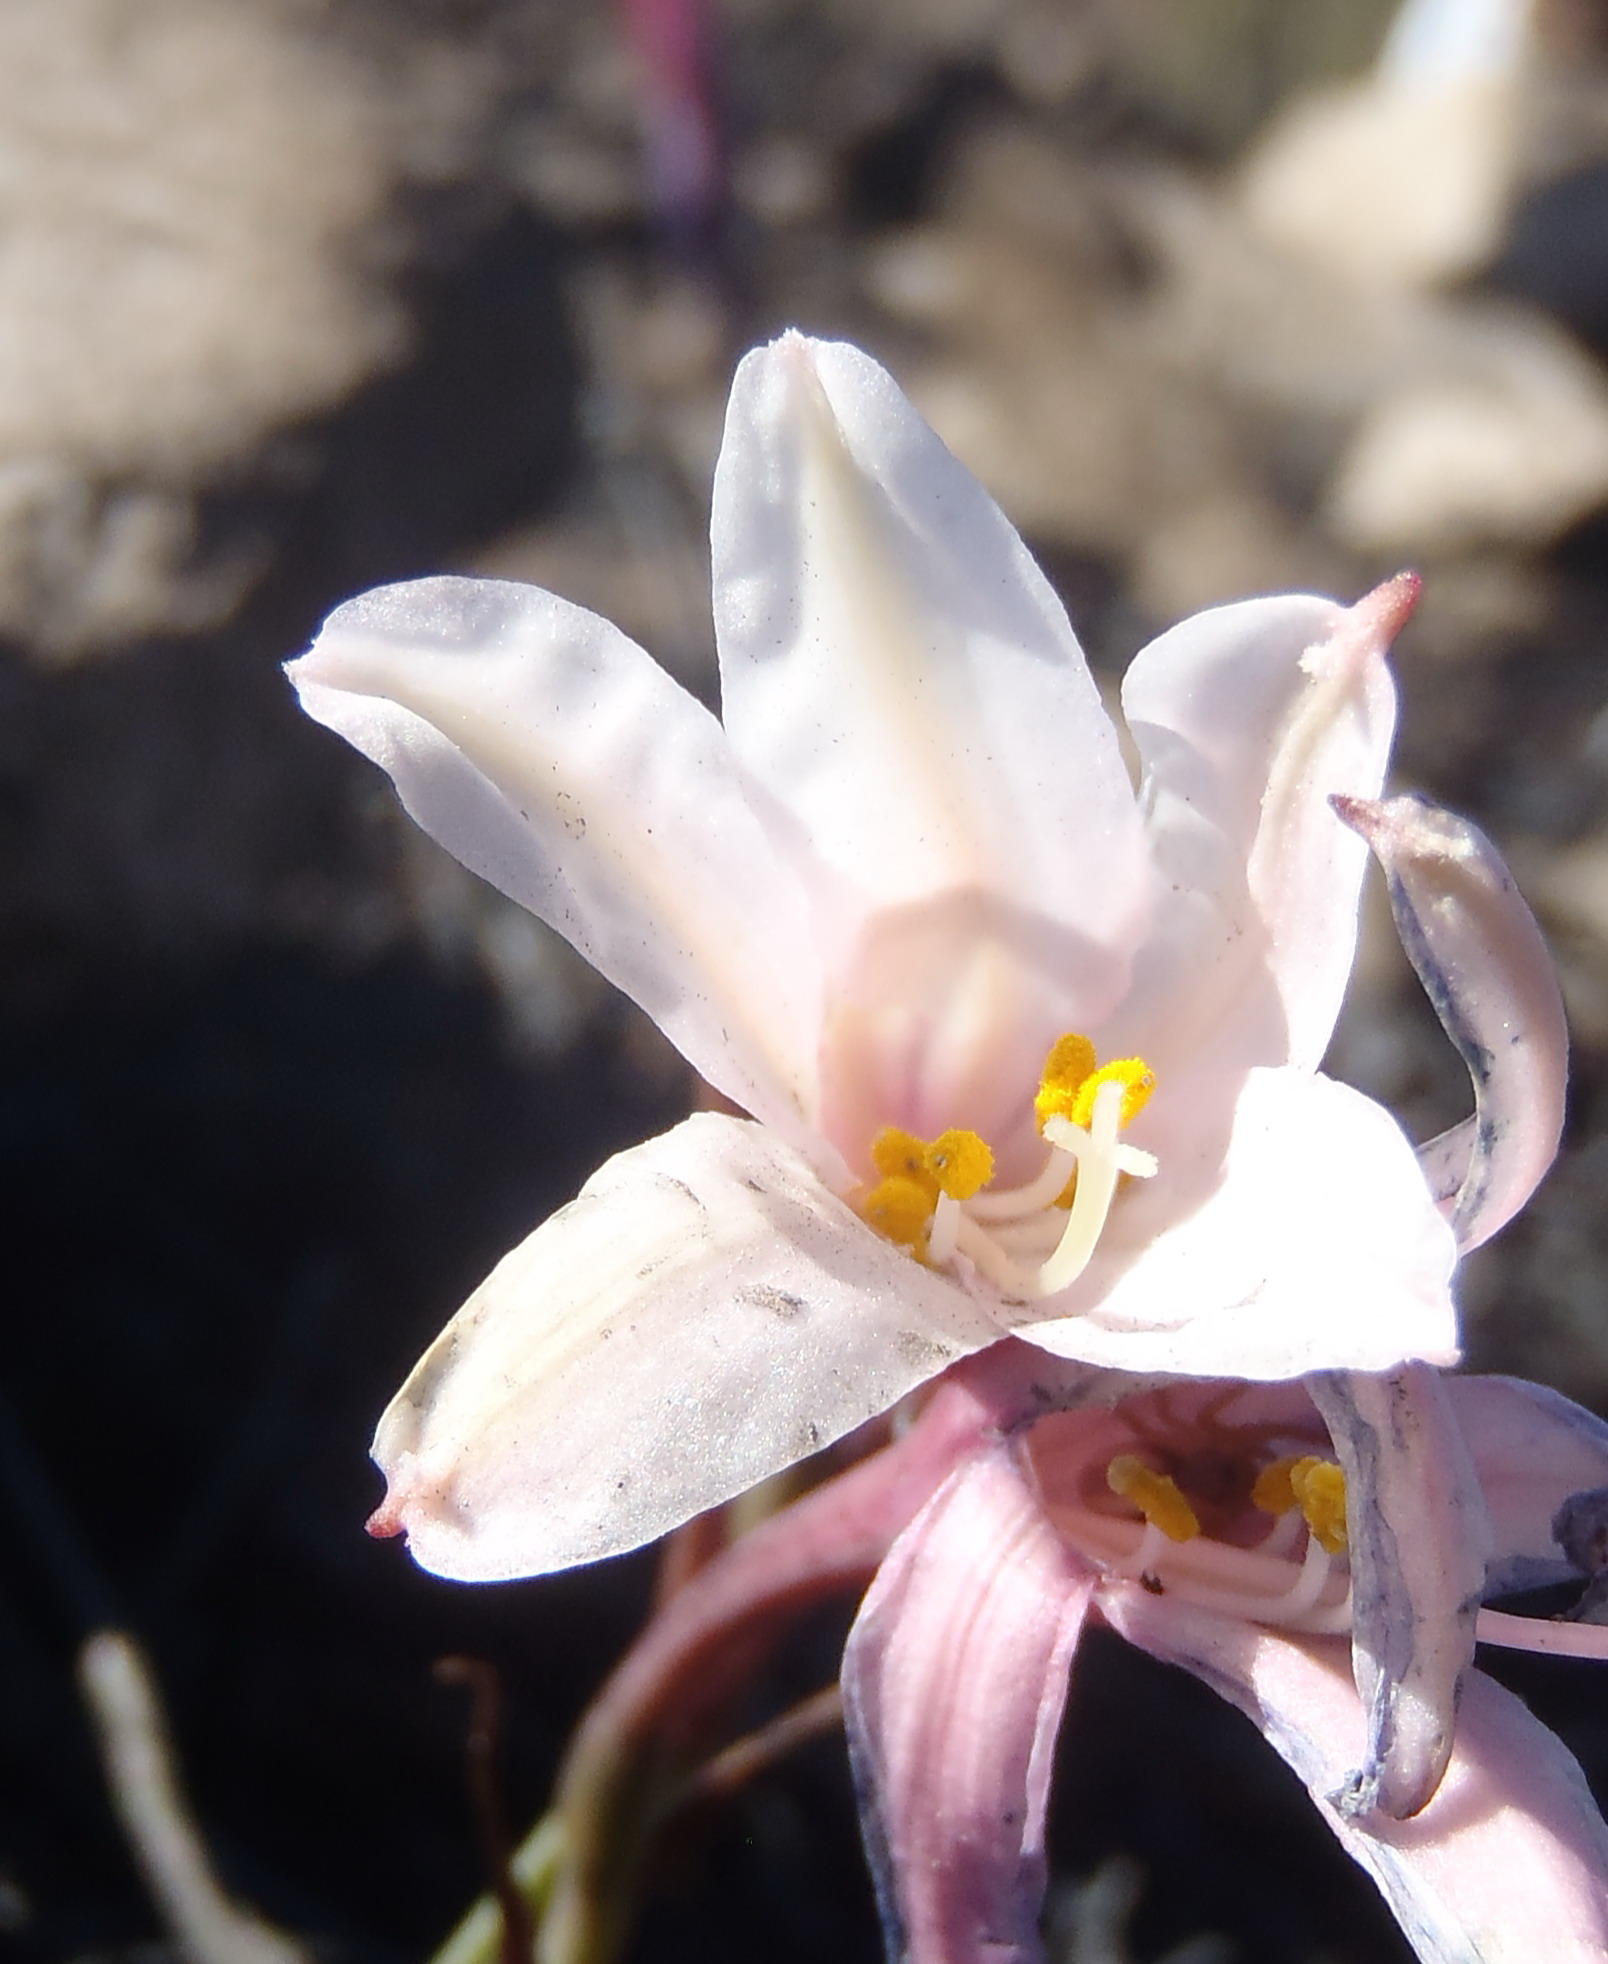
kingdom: Plantae
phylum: Tracheophyta
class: Liliopsida
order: Asparagales
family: Amaryllidaceae
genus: Cyrtanthus
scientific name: Cyrtanthus debilis
